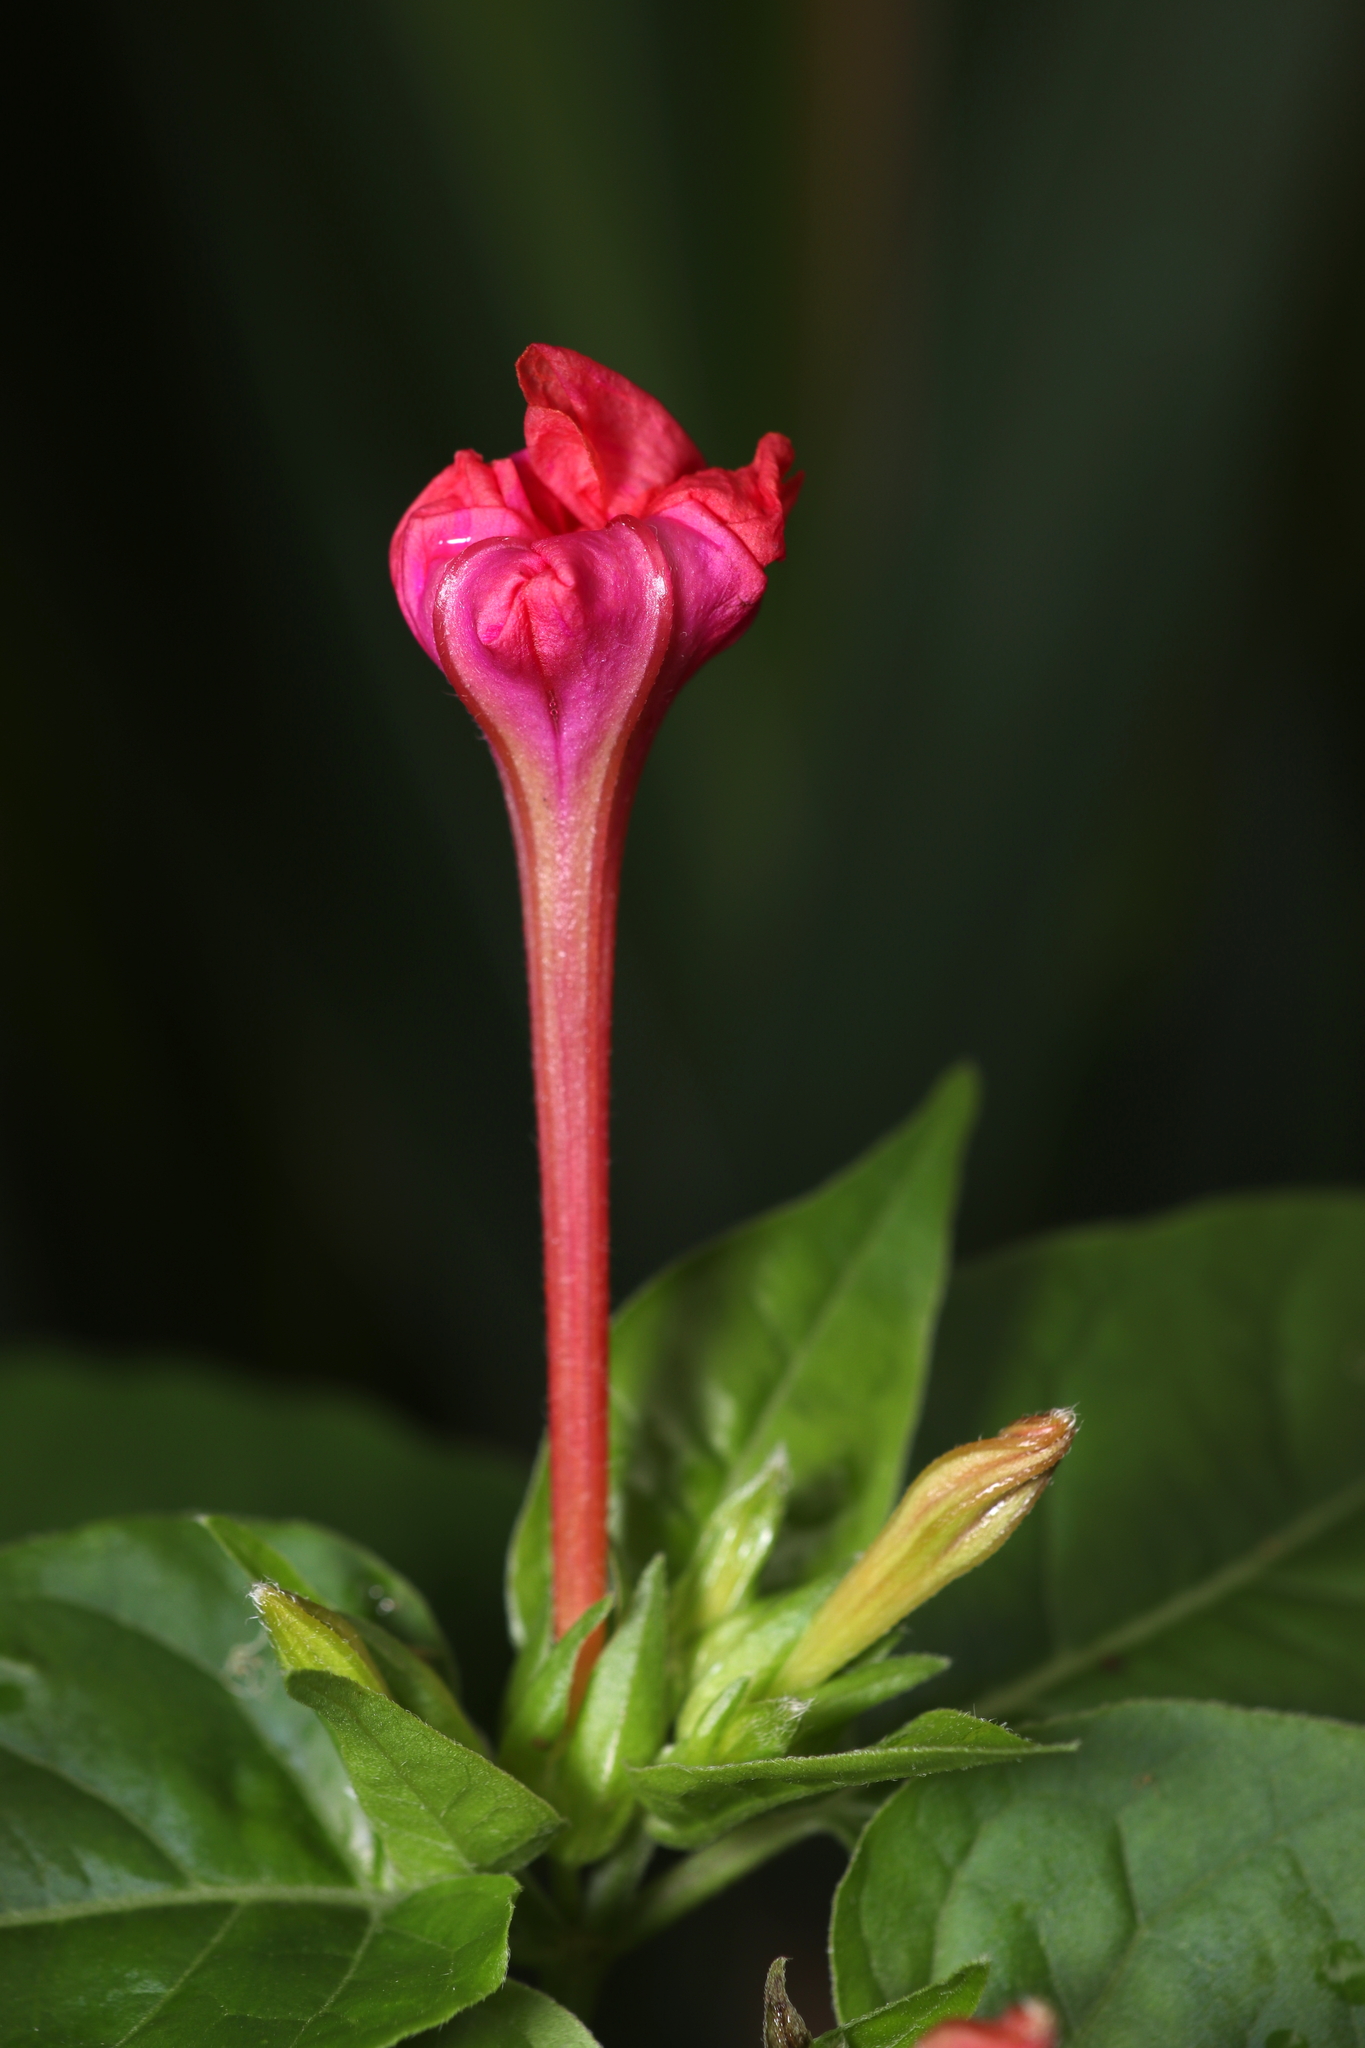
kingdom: Plantae
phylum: Tracheophyta
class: Magnoliopsida
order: Caryophyllales
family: Nyctaginaceae
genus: Mirabilis
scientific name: Mirabilis jalapa
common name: Marvel-of-peru
